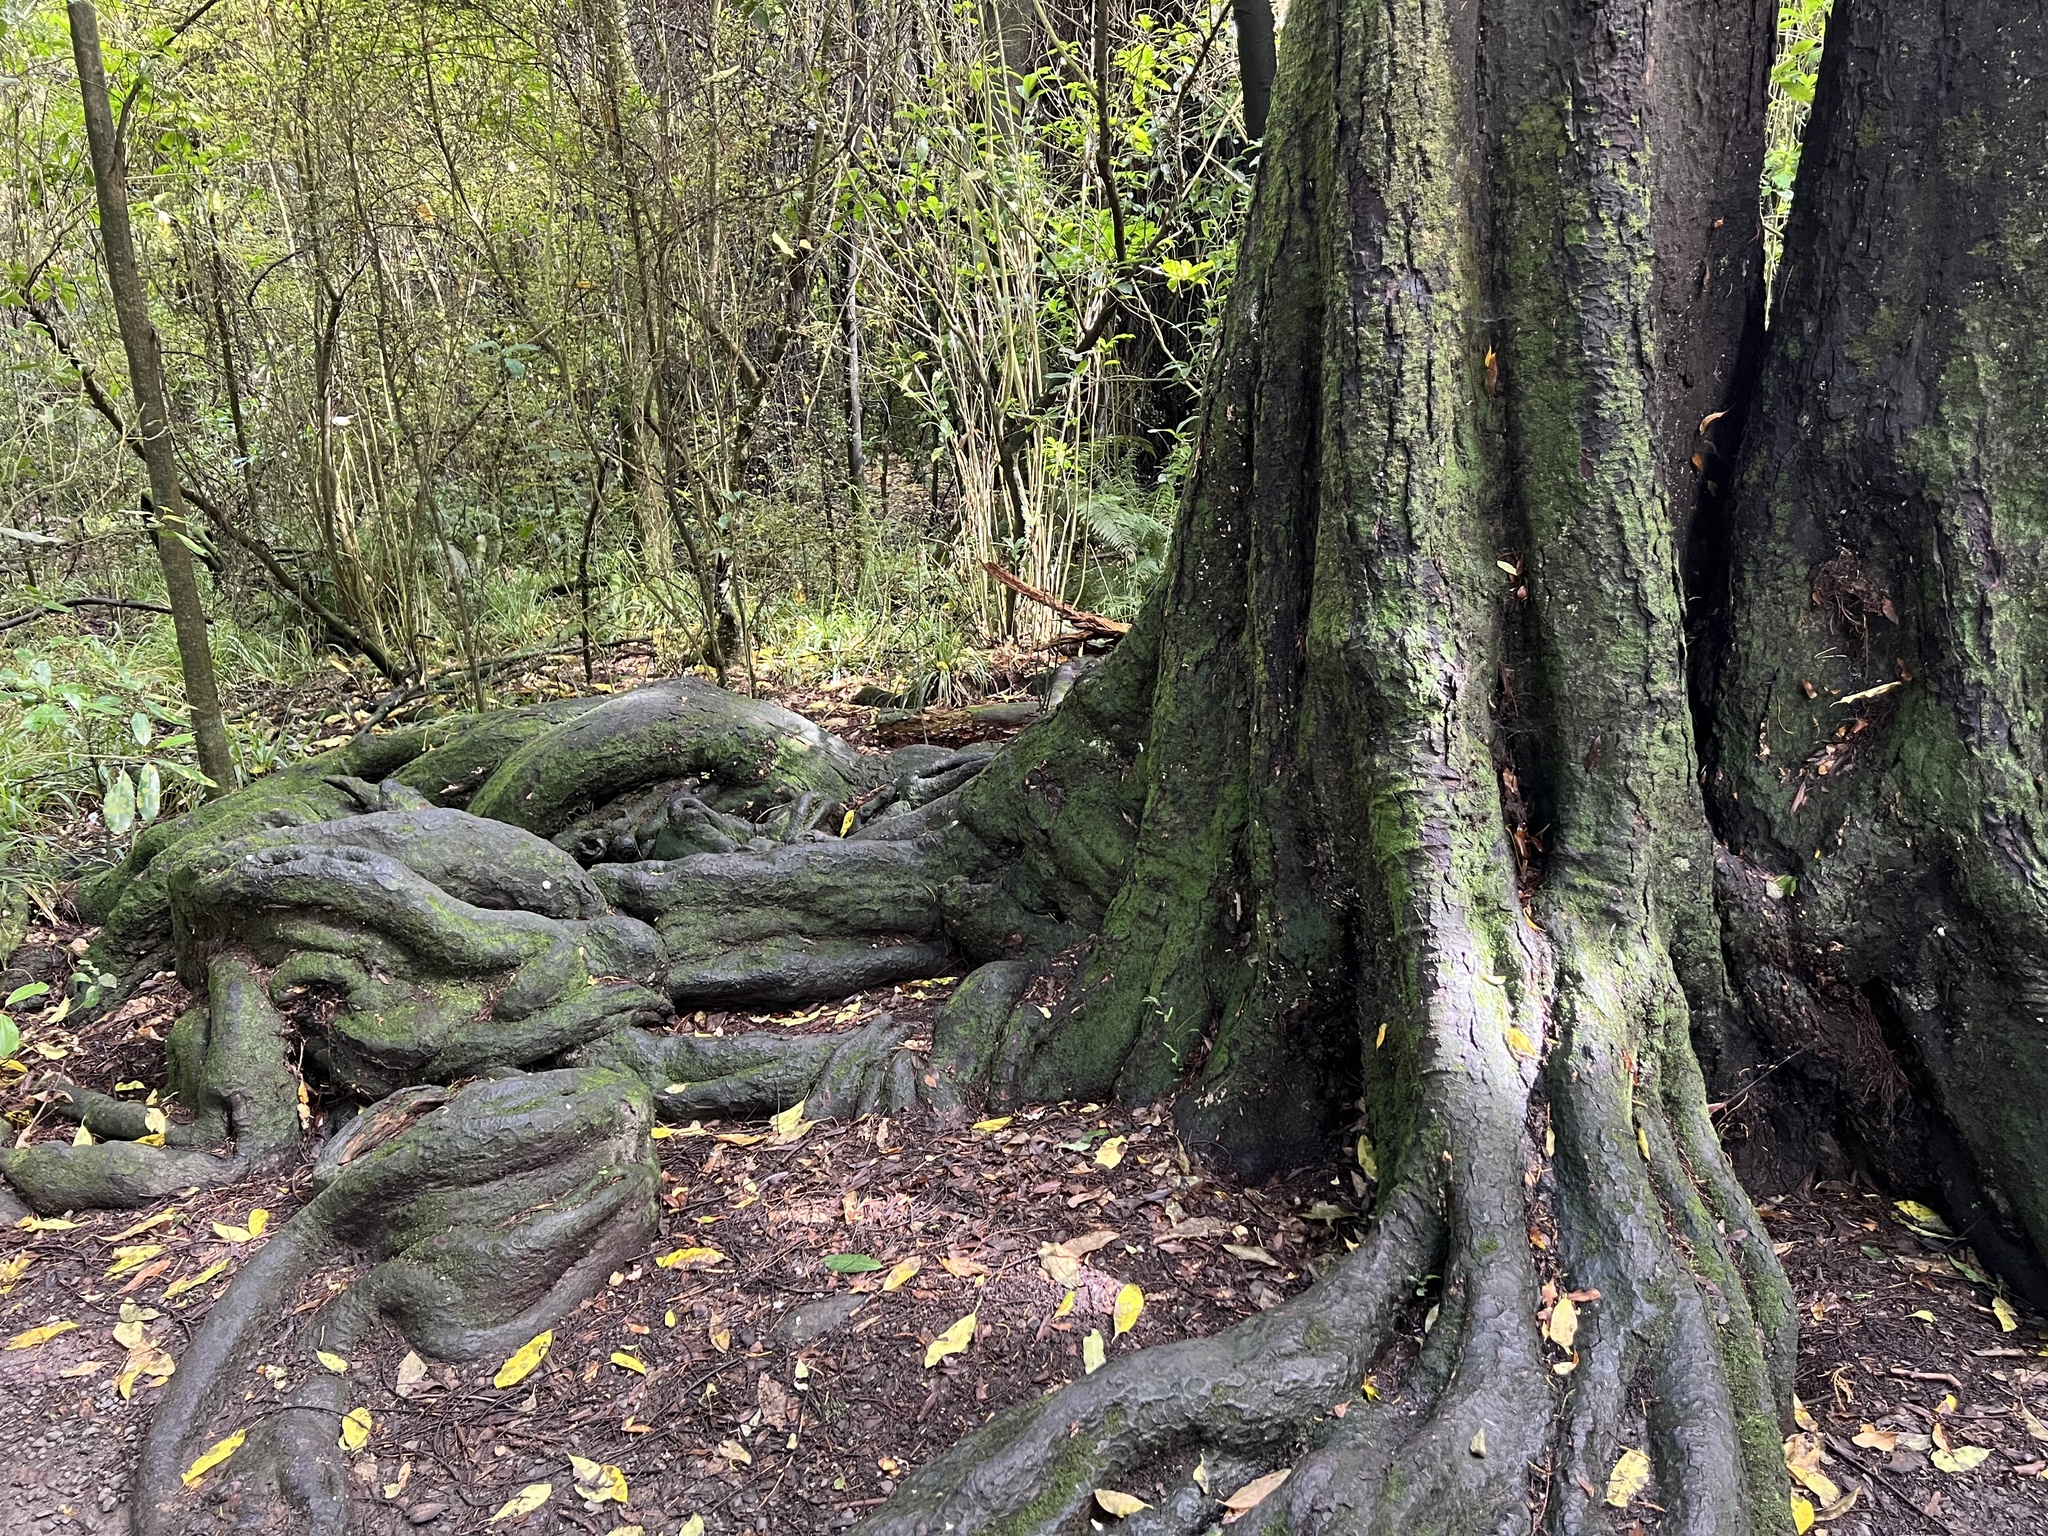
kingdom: Plantae
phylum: Tracheophyta
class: Pinopsida
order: Pinales
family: Podocarpaceae
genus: Dacrycarpus
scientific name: Dacrycarpus dacrydioides
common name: White pine
